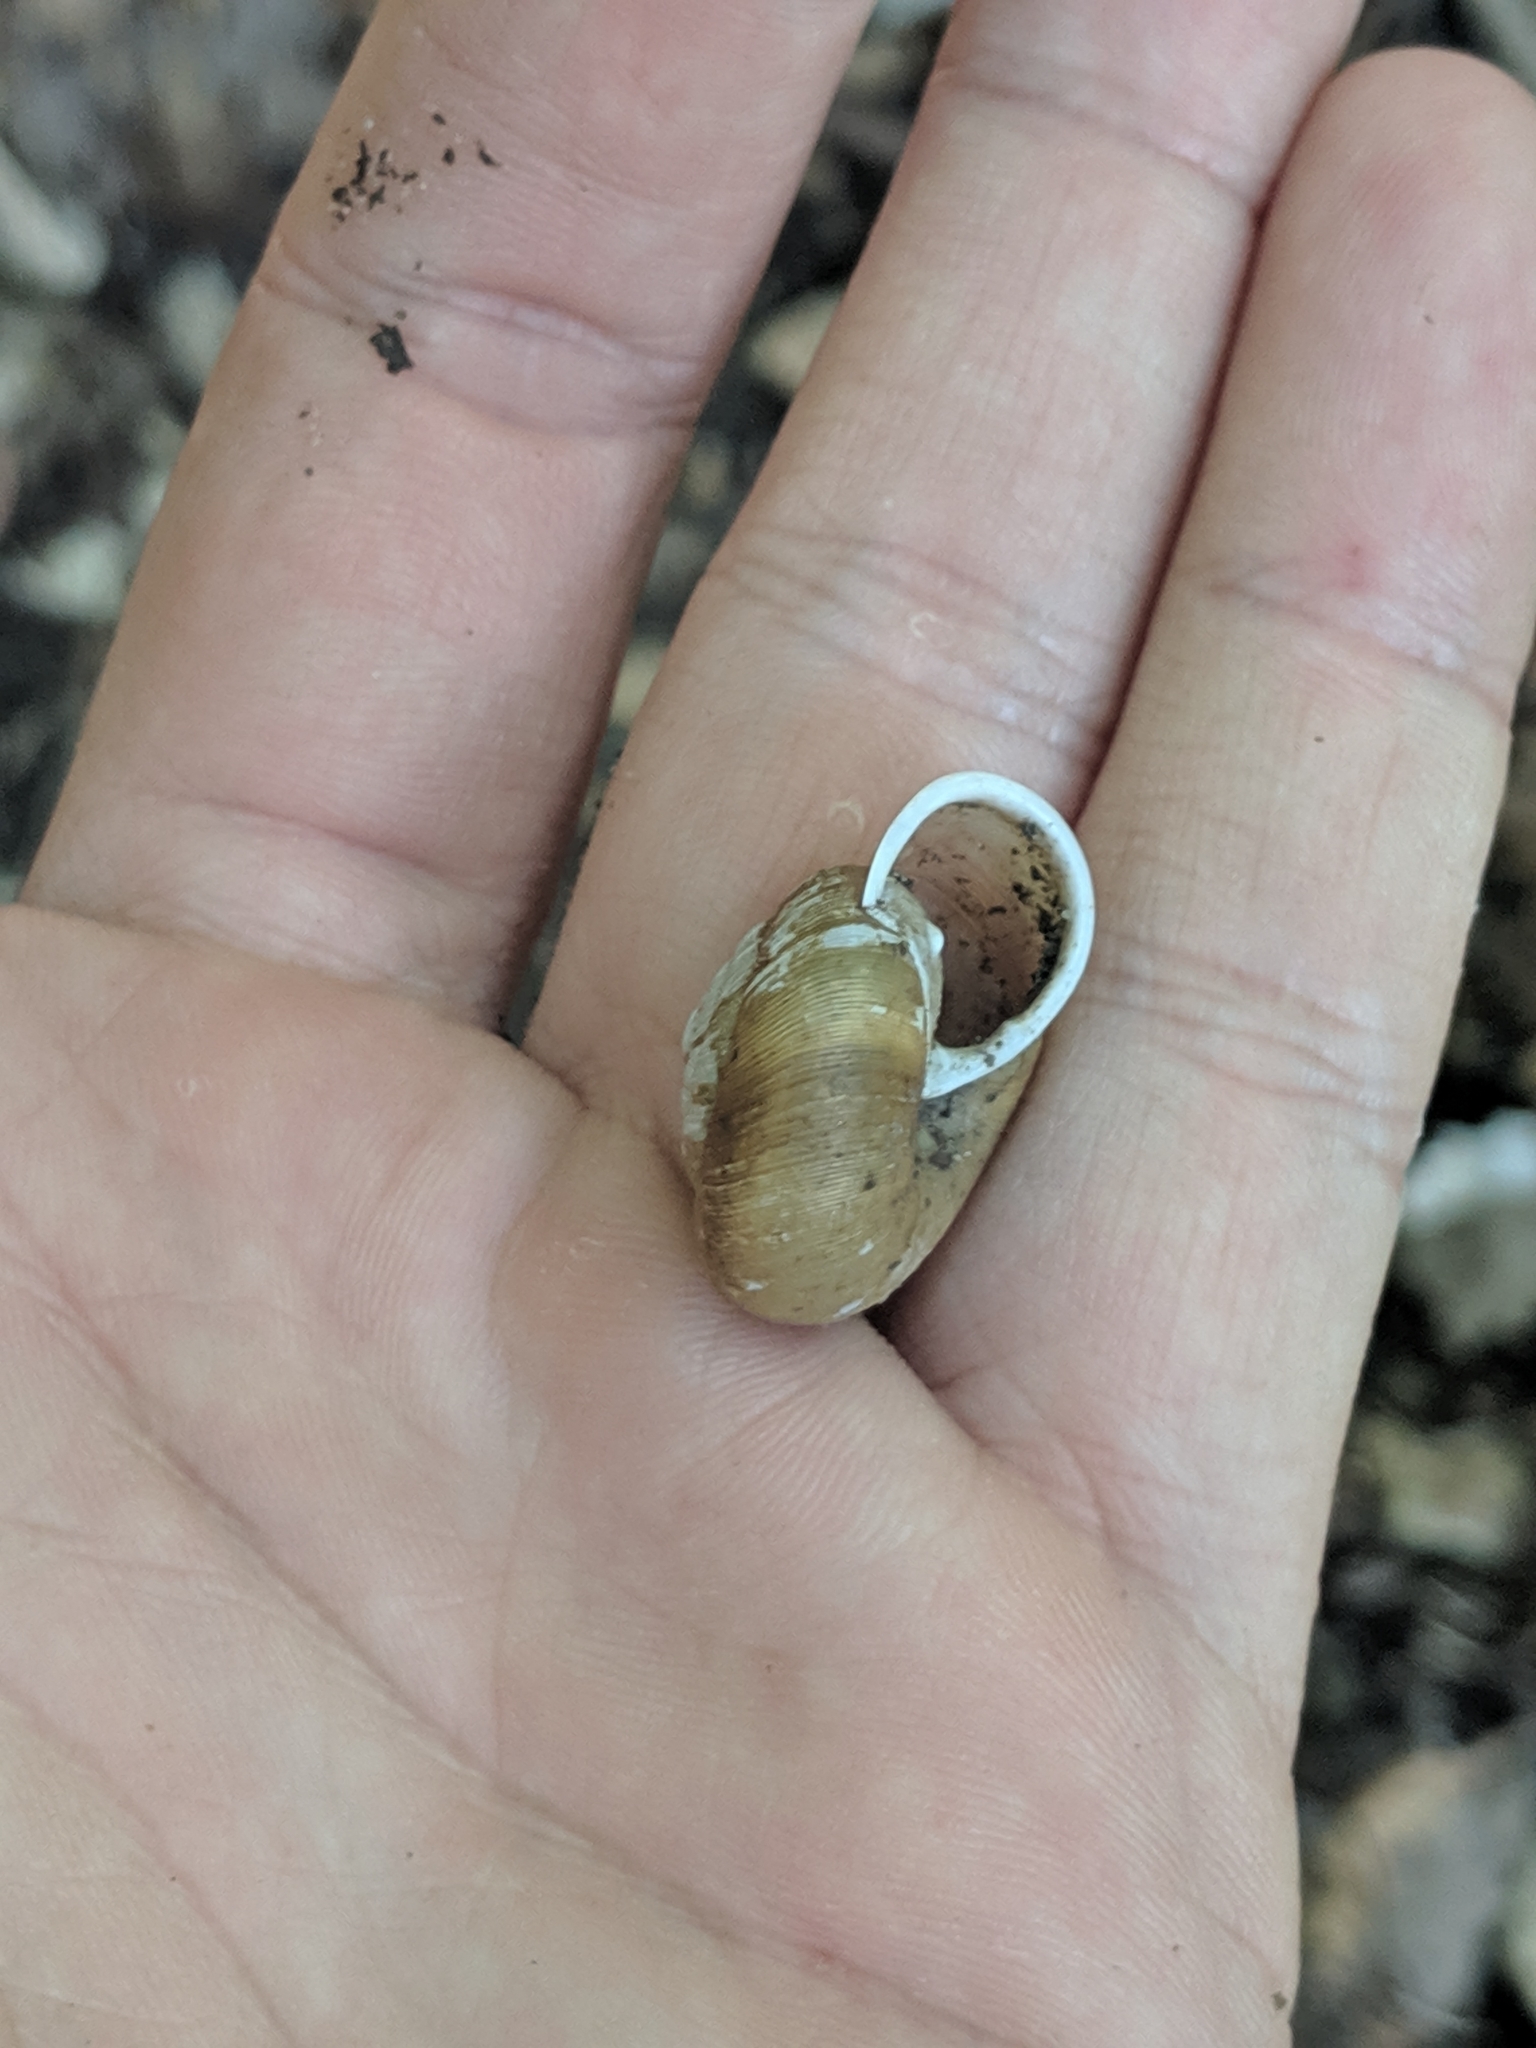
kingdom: Animalia
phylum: Mollusca
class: Gastropoda
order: Stylommatophora
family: Polygyridae
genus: Appalachina
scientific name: Appalachina sayana
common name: Spike-lip crater
